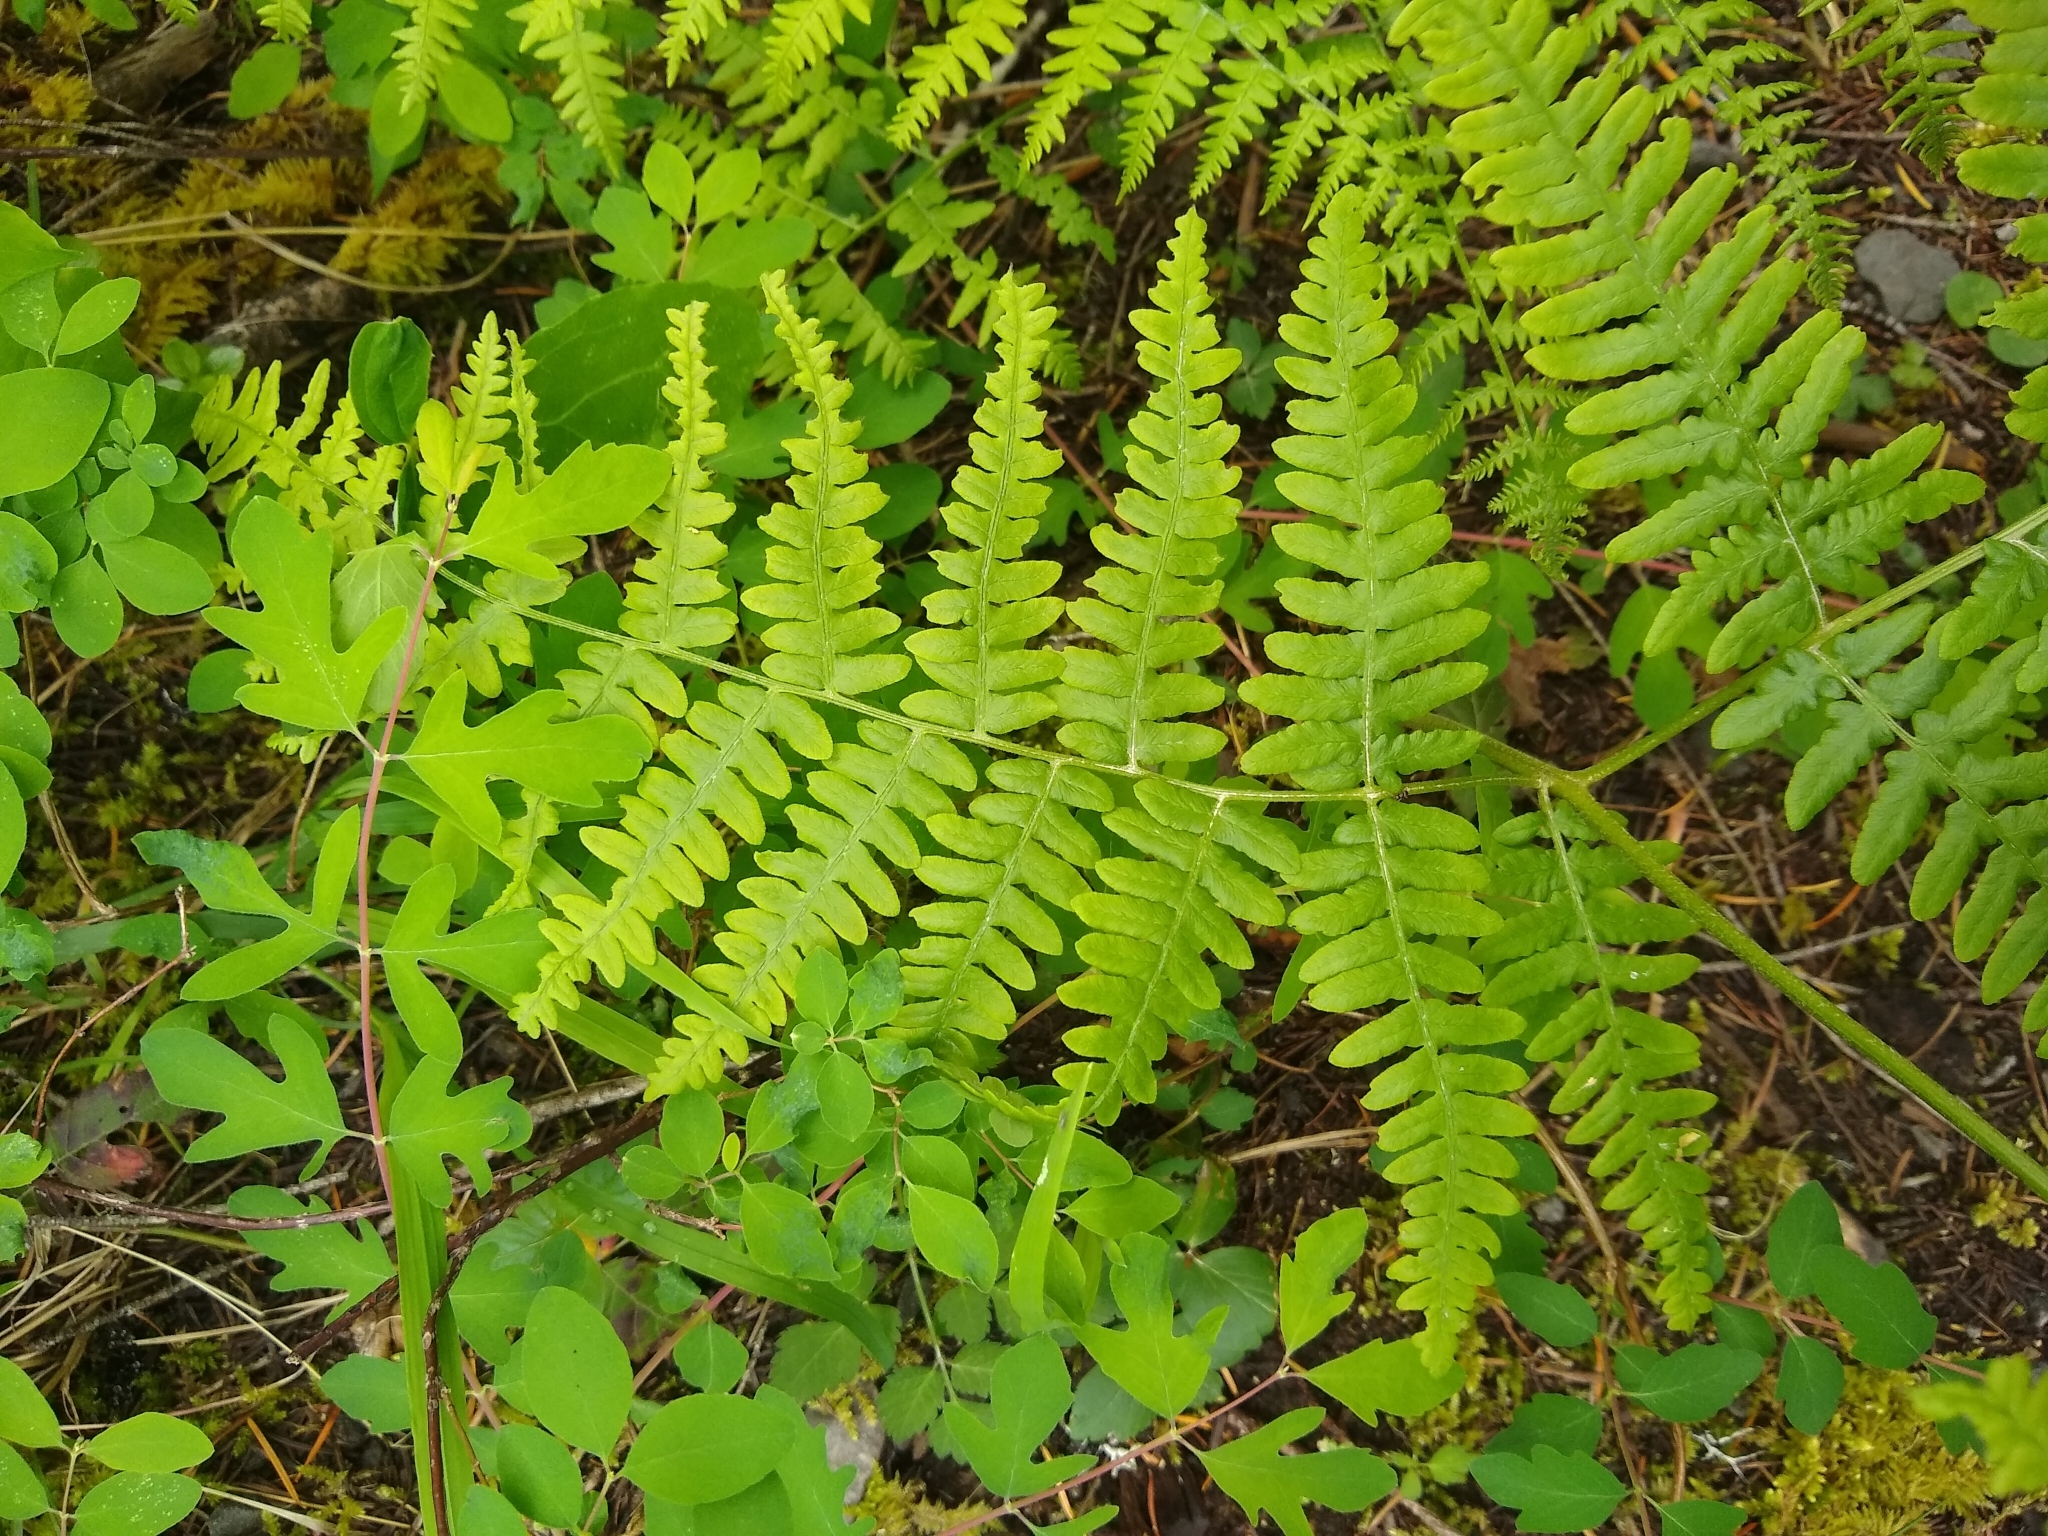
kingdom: Plantae
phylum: Tracheophyta
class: Polypodiopsida
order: Polypodiales
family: Dennstaedtiaceae
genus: Pteridium
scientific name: Pteridium aquilinum
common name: Bracken
